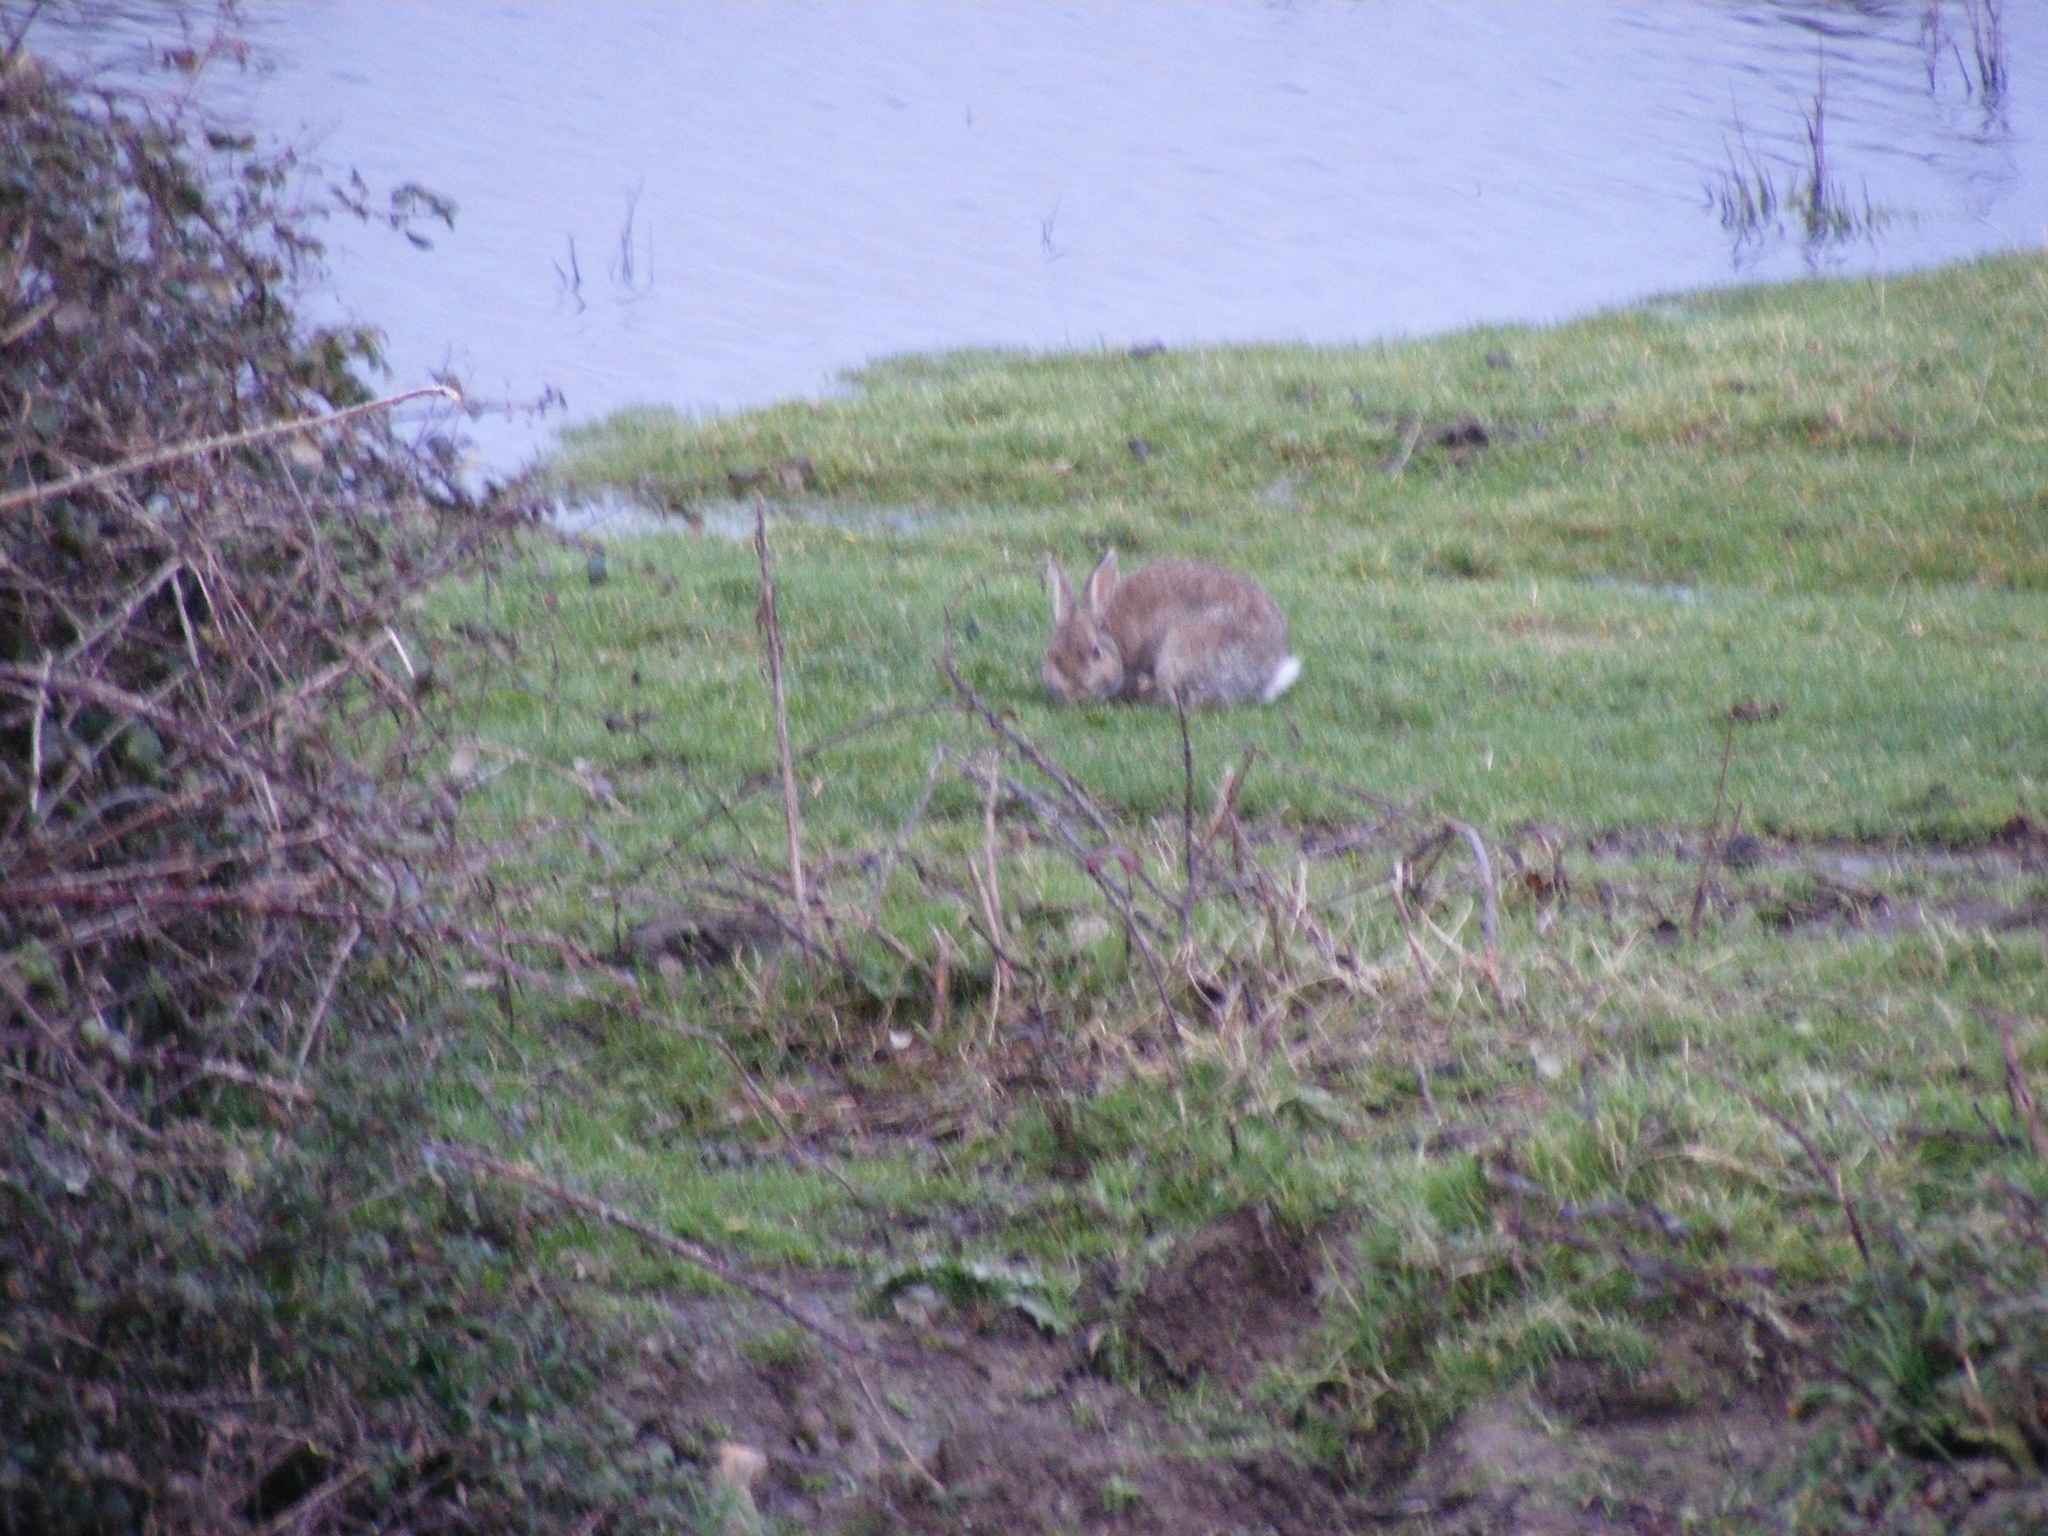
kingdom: Animalia
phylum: Chordata
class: Mammalia
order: Lagomorpha
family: Leporidae
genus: Oryctolagus
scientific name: Oryctolagus cuniculus
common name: European rabbit
